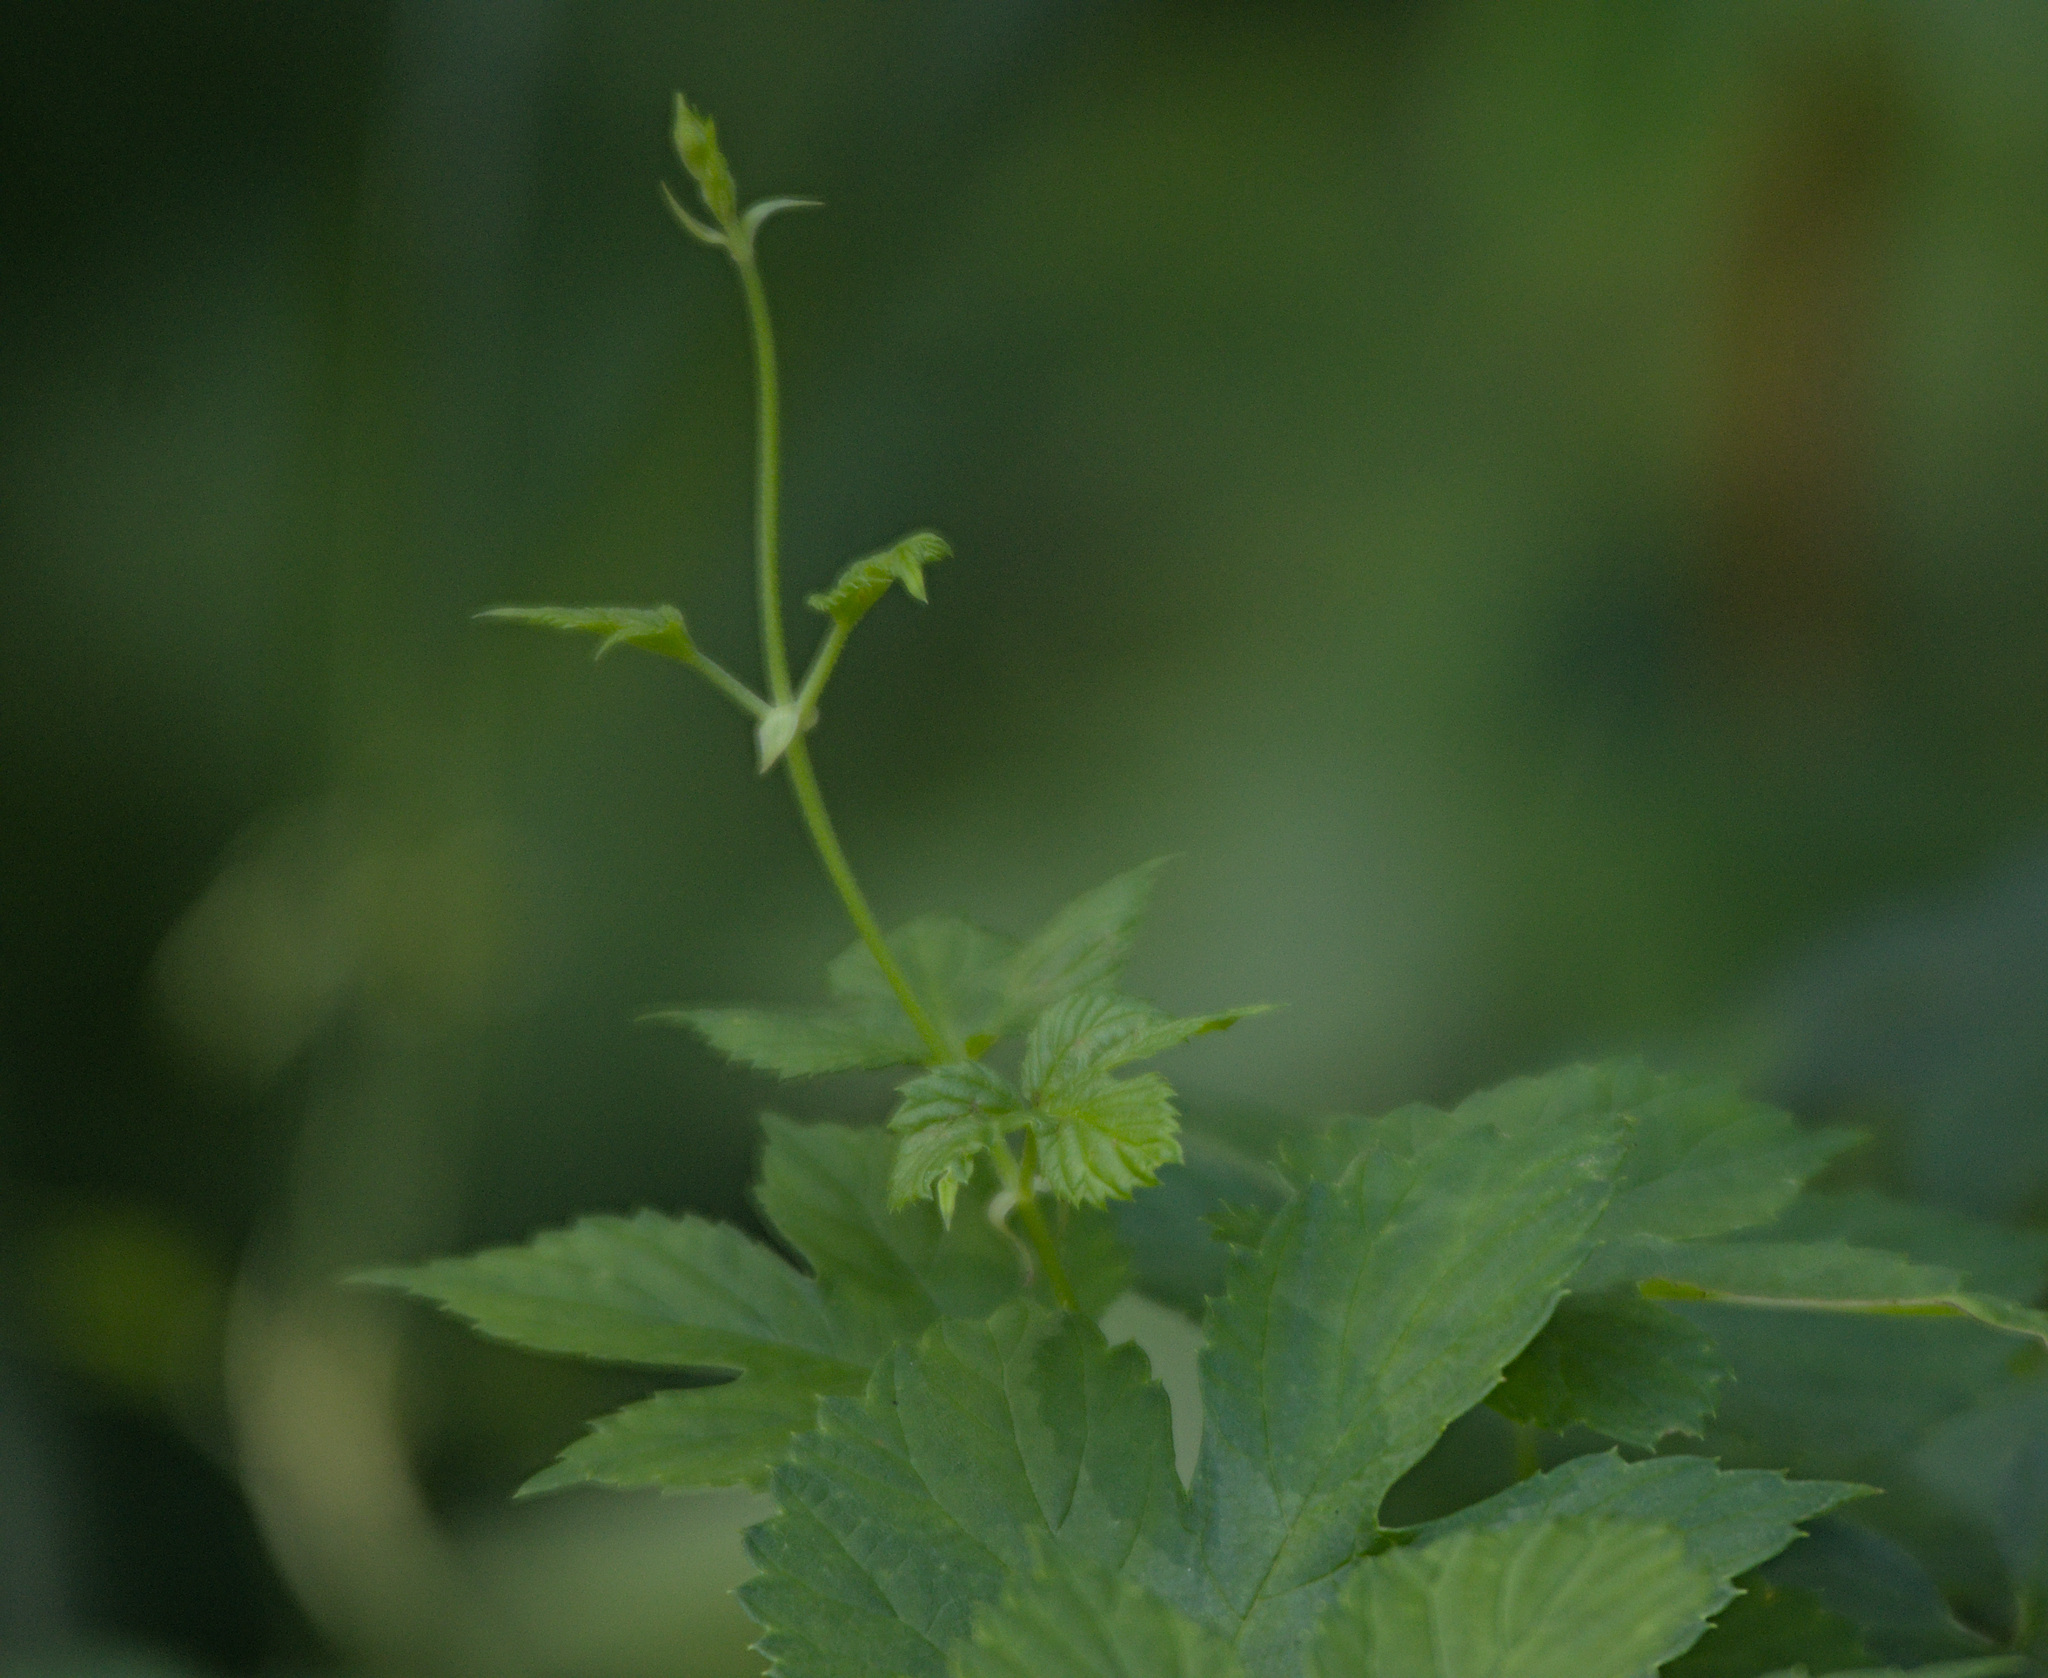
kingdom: Plantae
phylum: Tracheophyta
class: Magnoliopsida
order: Rosales
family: Cannabaceae
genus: Humulus
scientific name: Humulus lupulus
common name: Hop
